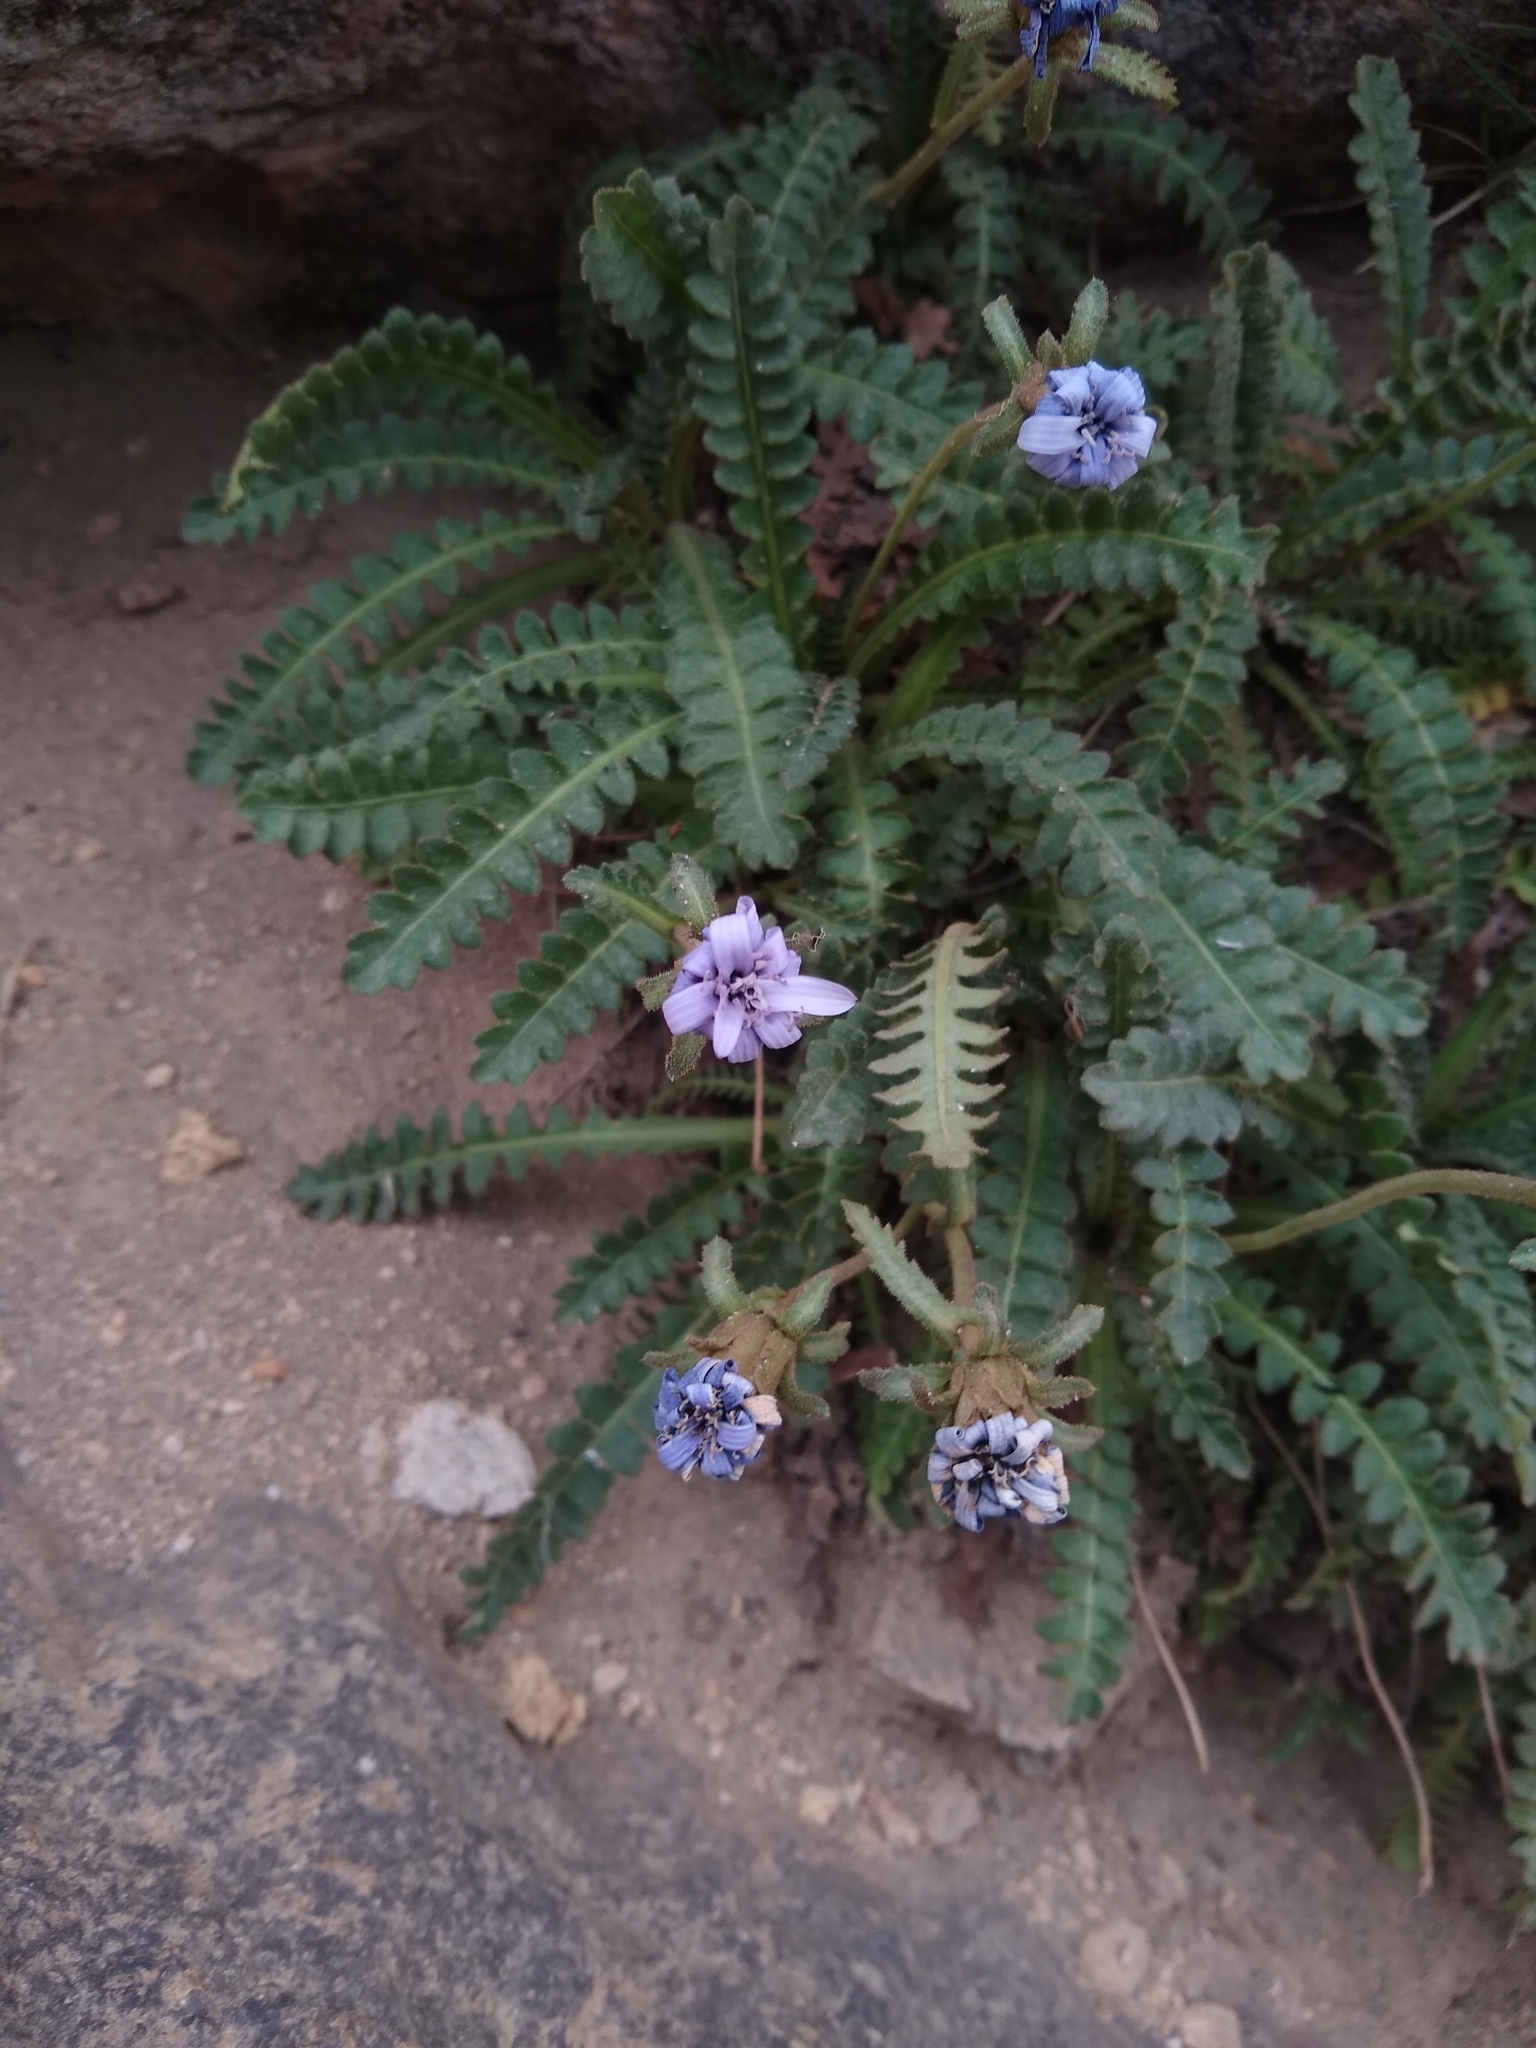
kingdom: Plantae
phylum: Tracheophyta
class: Magnoliopsida
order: Asterales
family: Asteraceae
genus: Perezia
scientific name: Perezia fonckii
